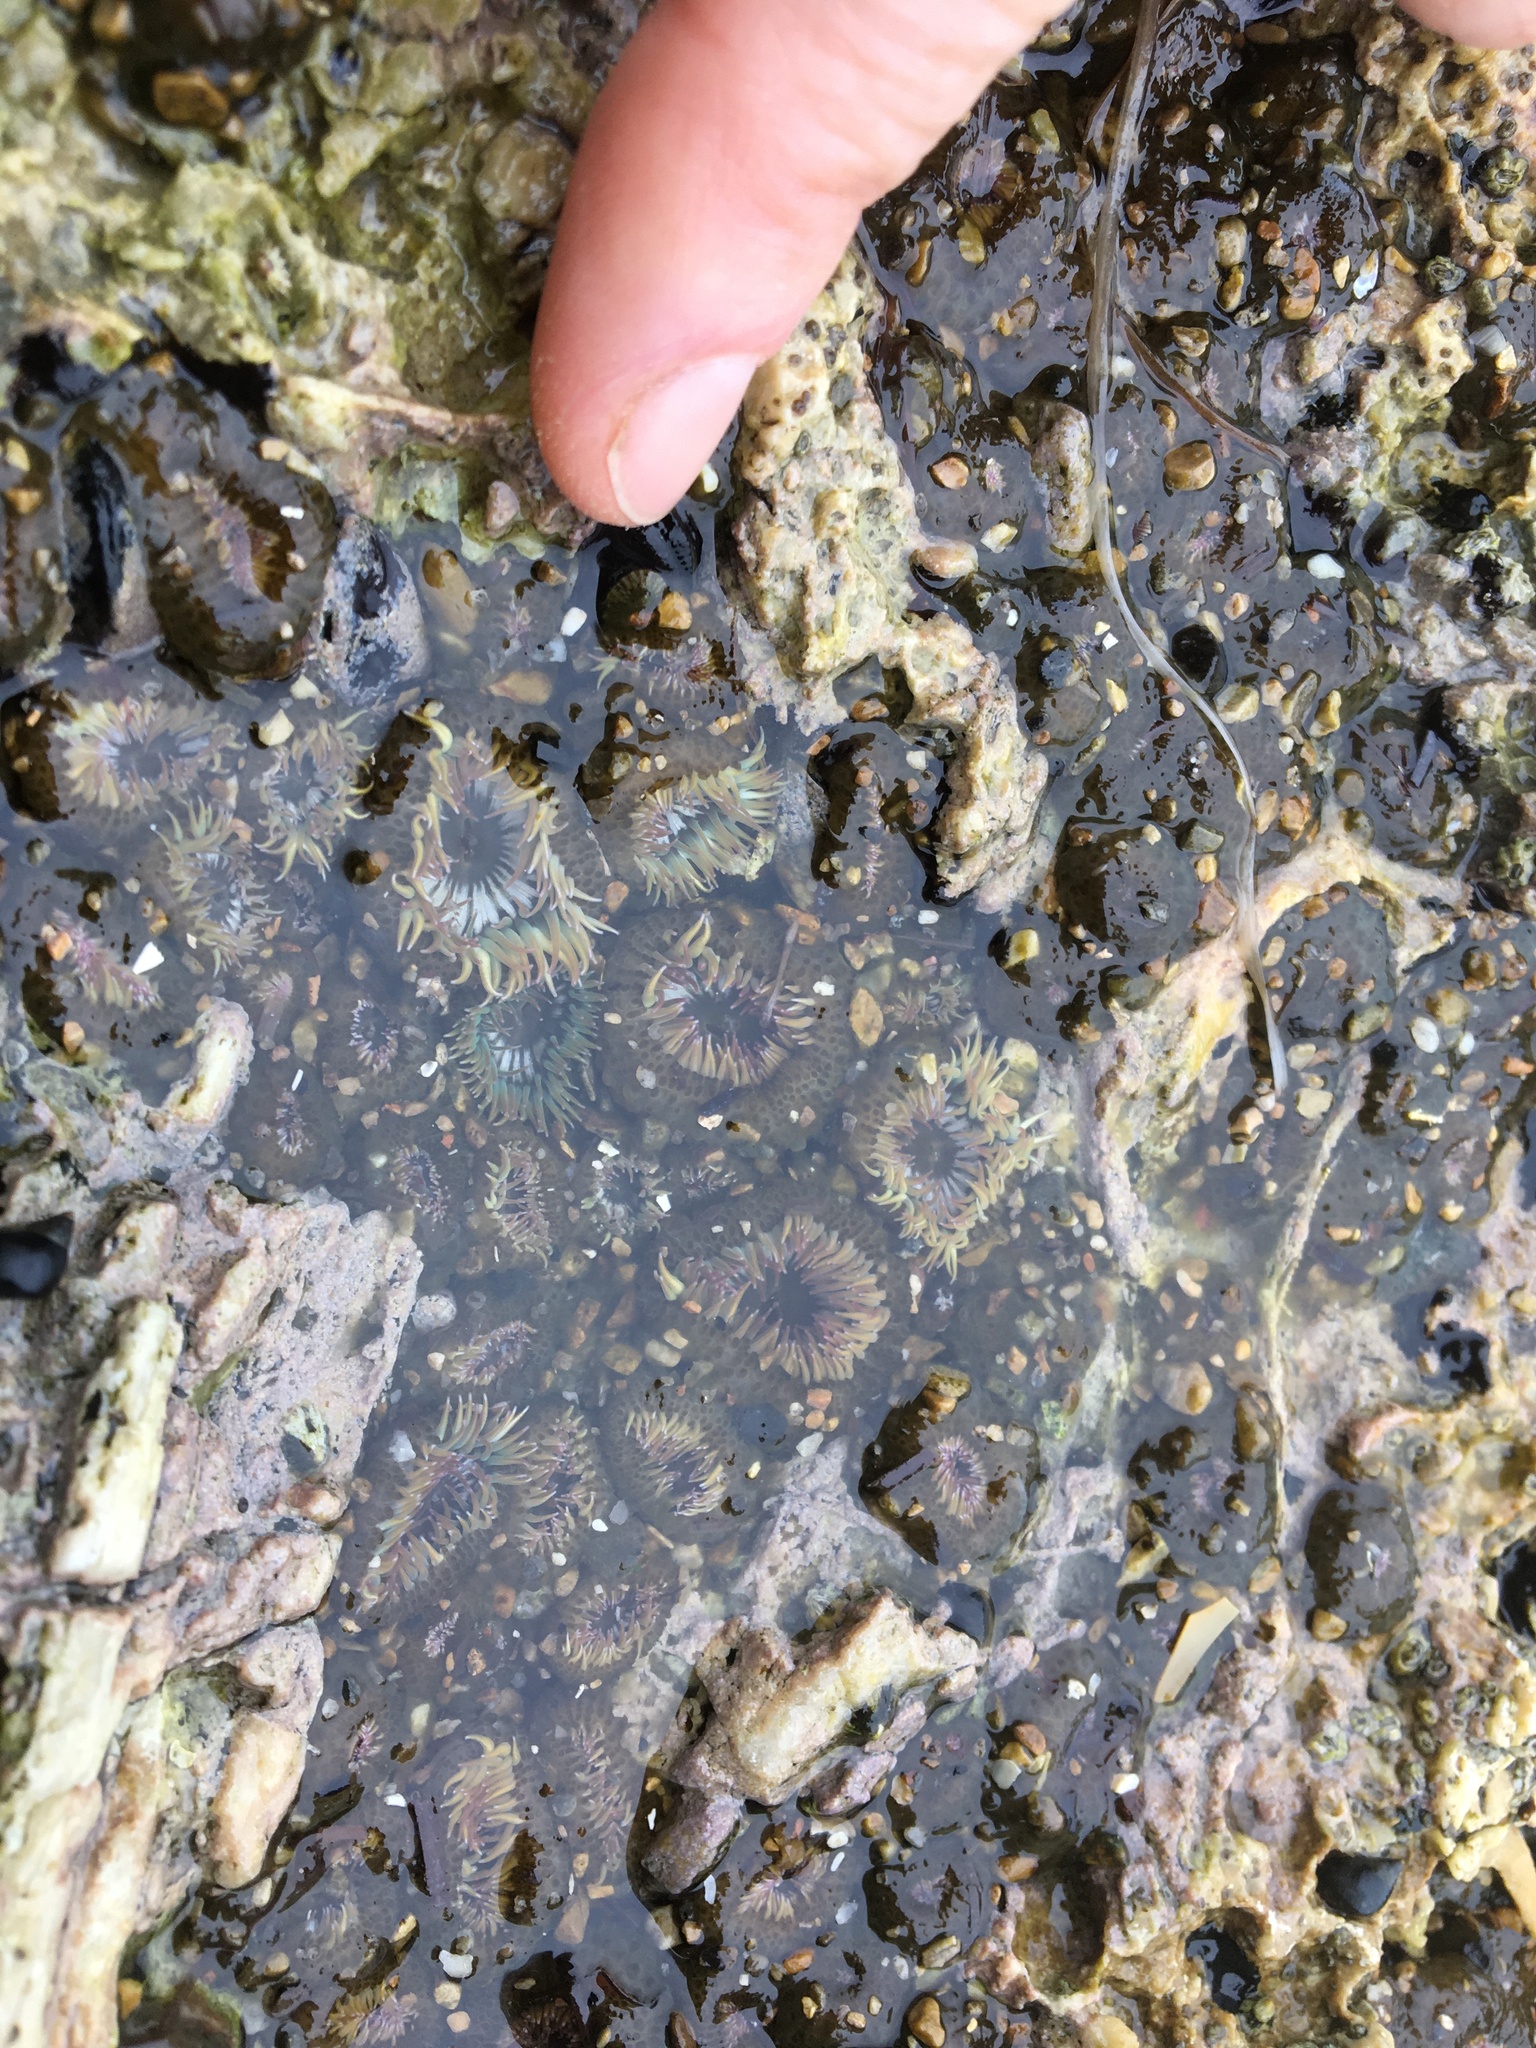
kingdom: Animalia
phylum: Cnidaria
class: Anthozoa
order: Actiniaria
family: Actiniidae
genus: Anthopleura
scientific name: Anthopleura elegantissima
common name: Clonal anemone
